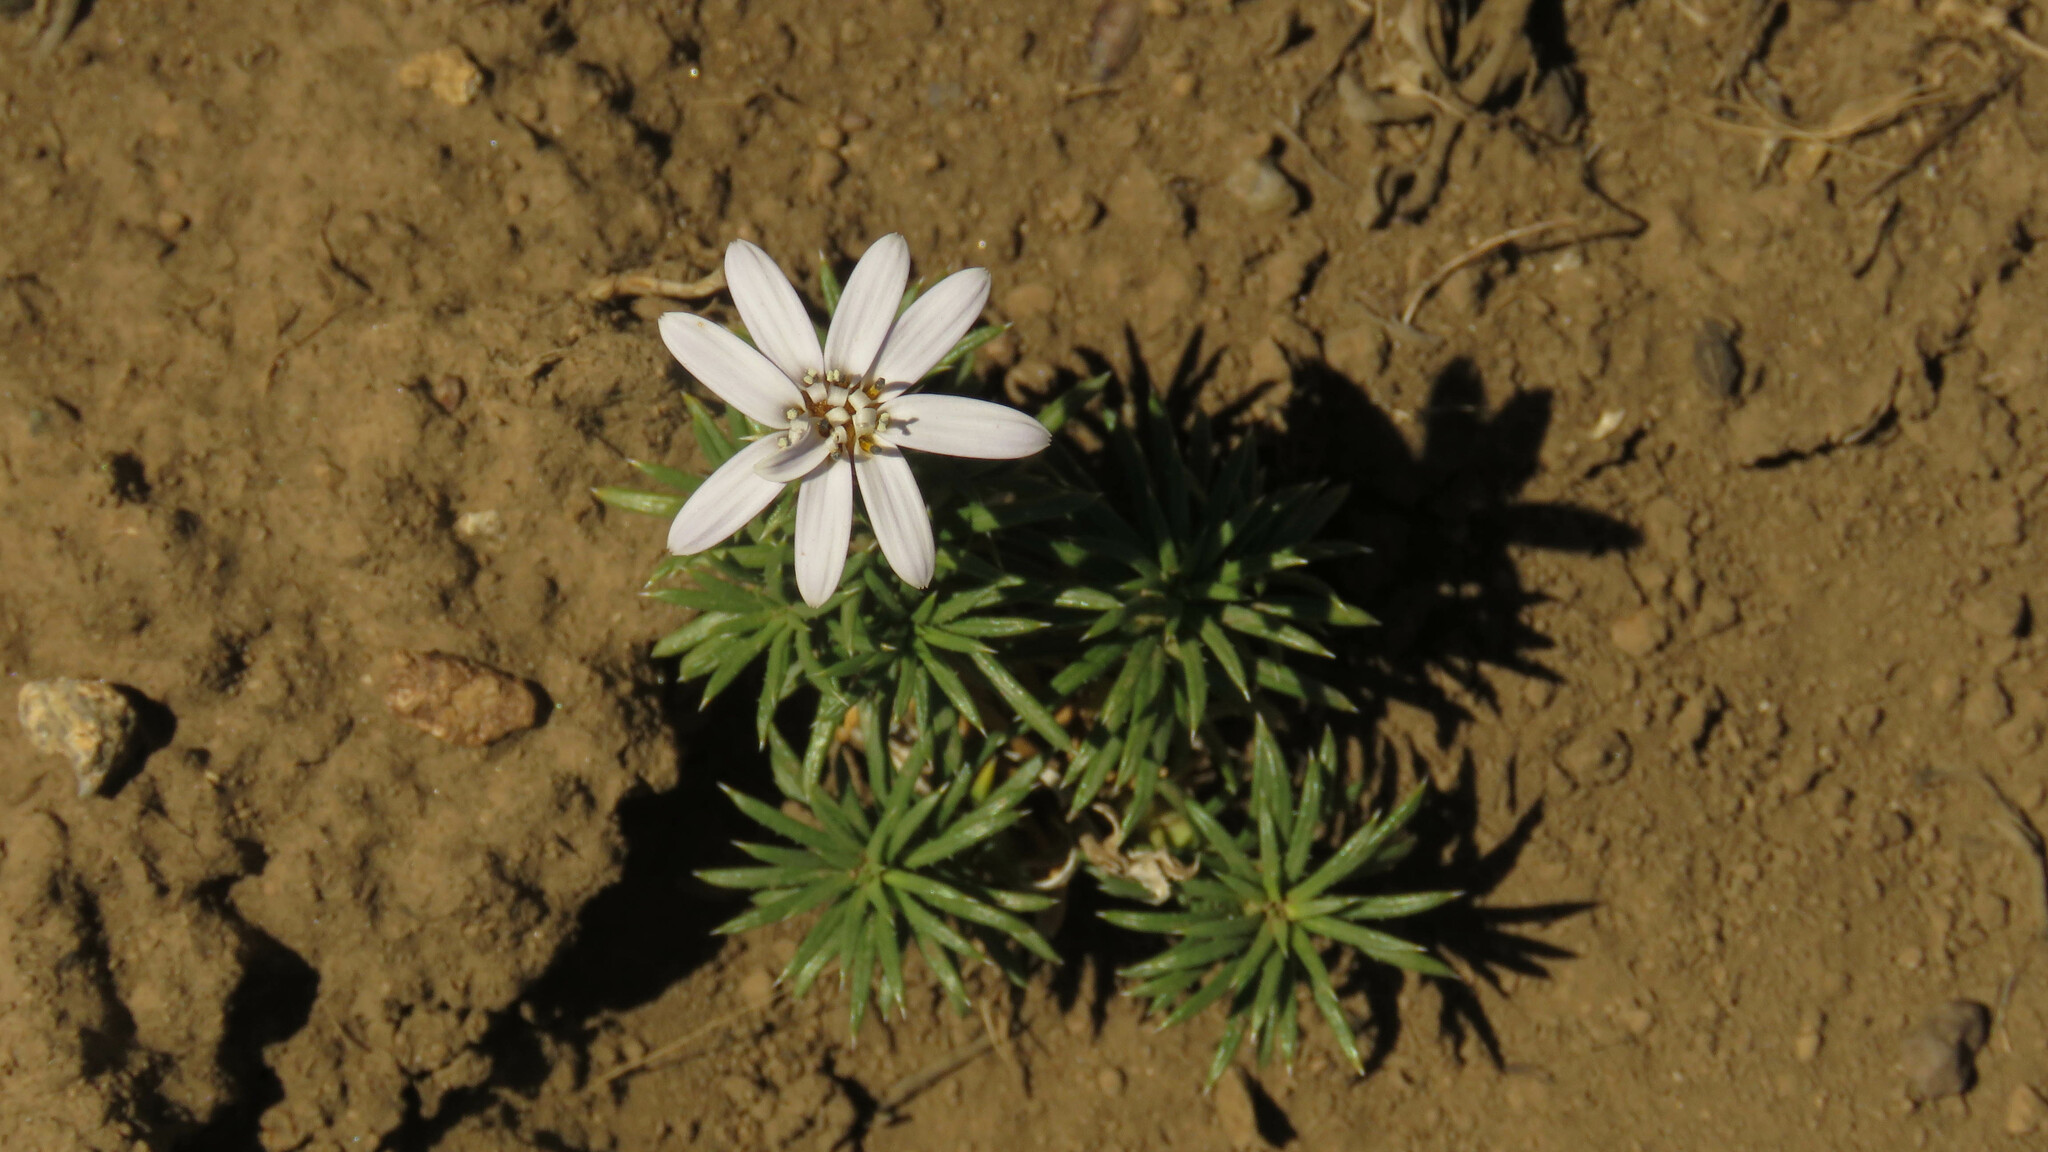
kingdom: Plantae
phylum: Tracheophyta
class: Magnoliopsida
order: Asterales
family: Asteraceae
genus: Perezia
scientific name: Perezia recurvata
